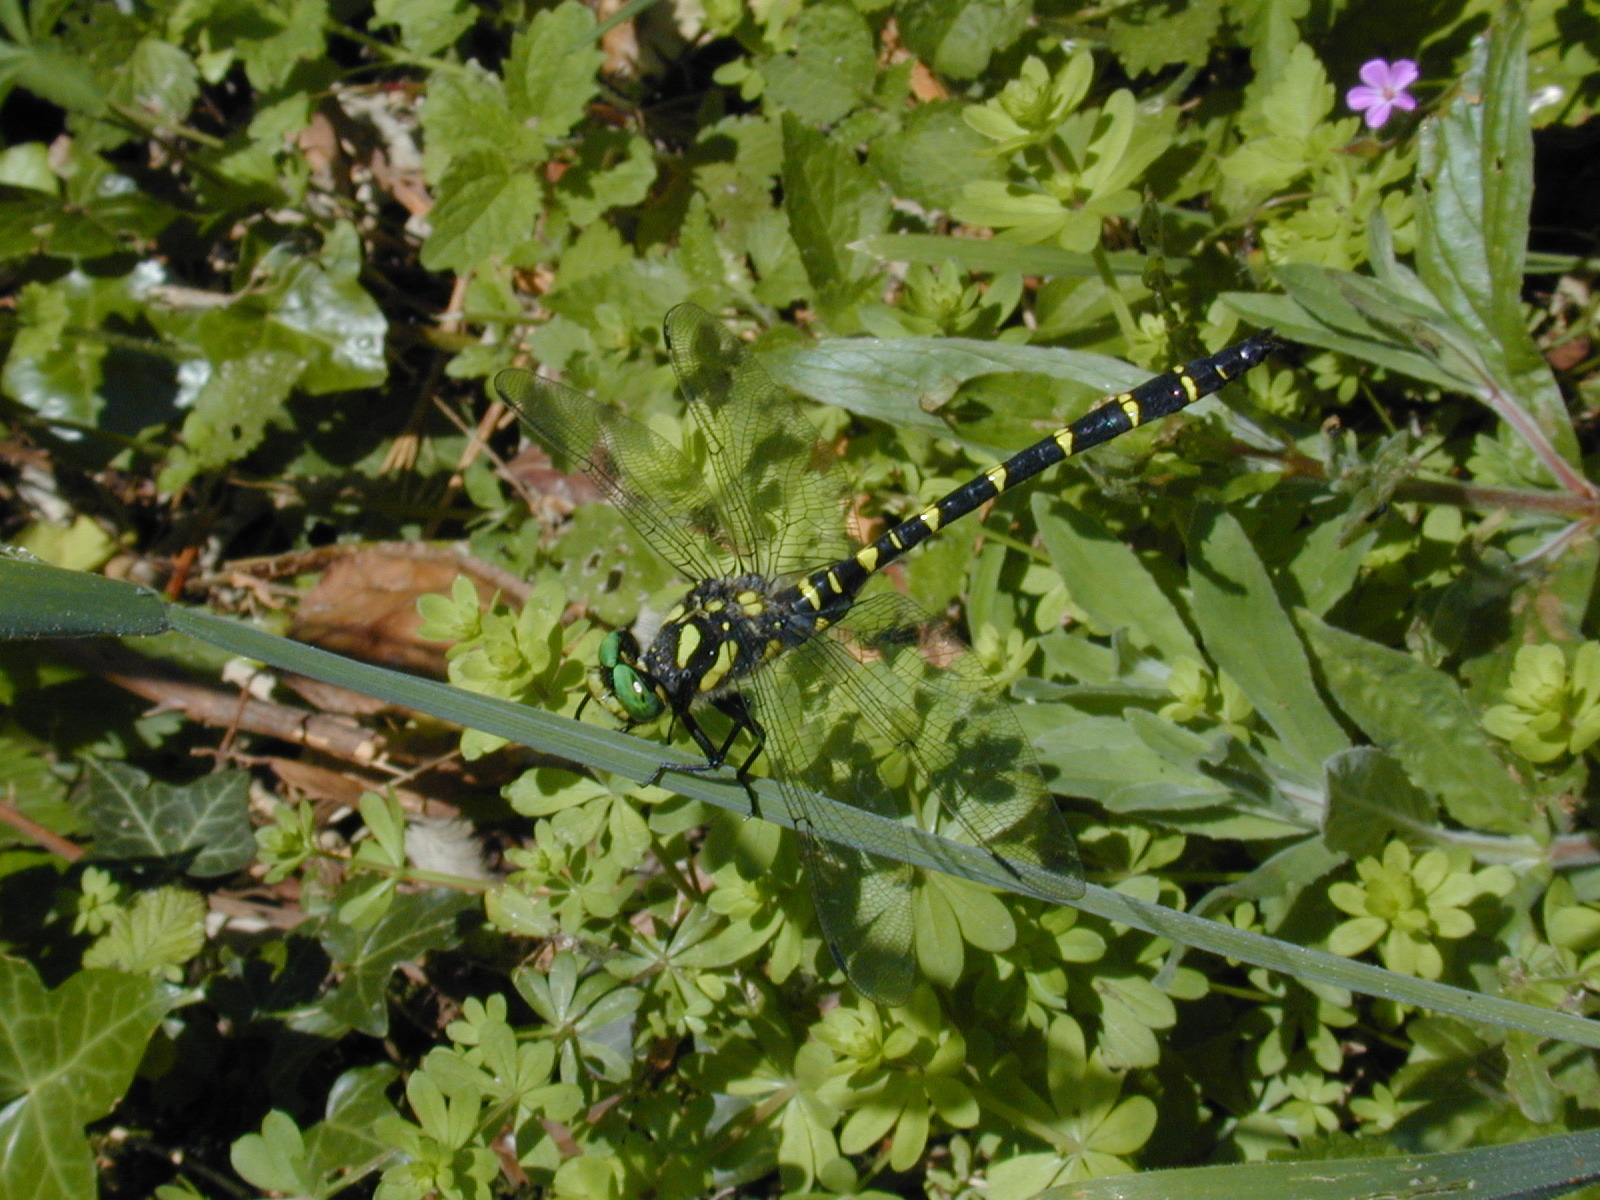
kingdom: Animalia
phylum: Arthropoda
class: Insecta
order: Odonata
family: Cordulegastridae
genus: Cordulegaster
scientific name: Cordulegaster bidentata
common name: Sombre goldenring
